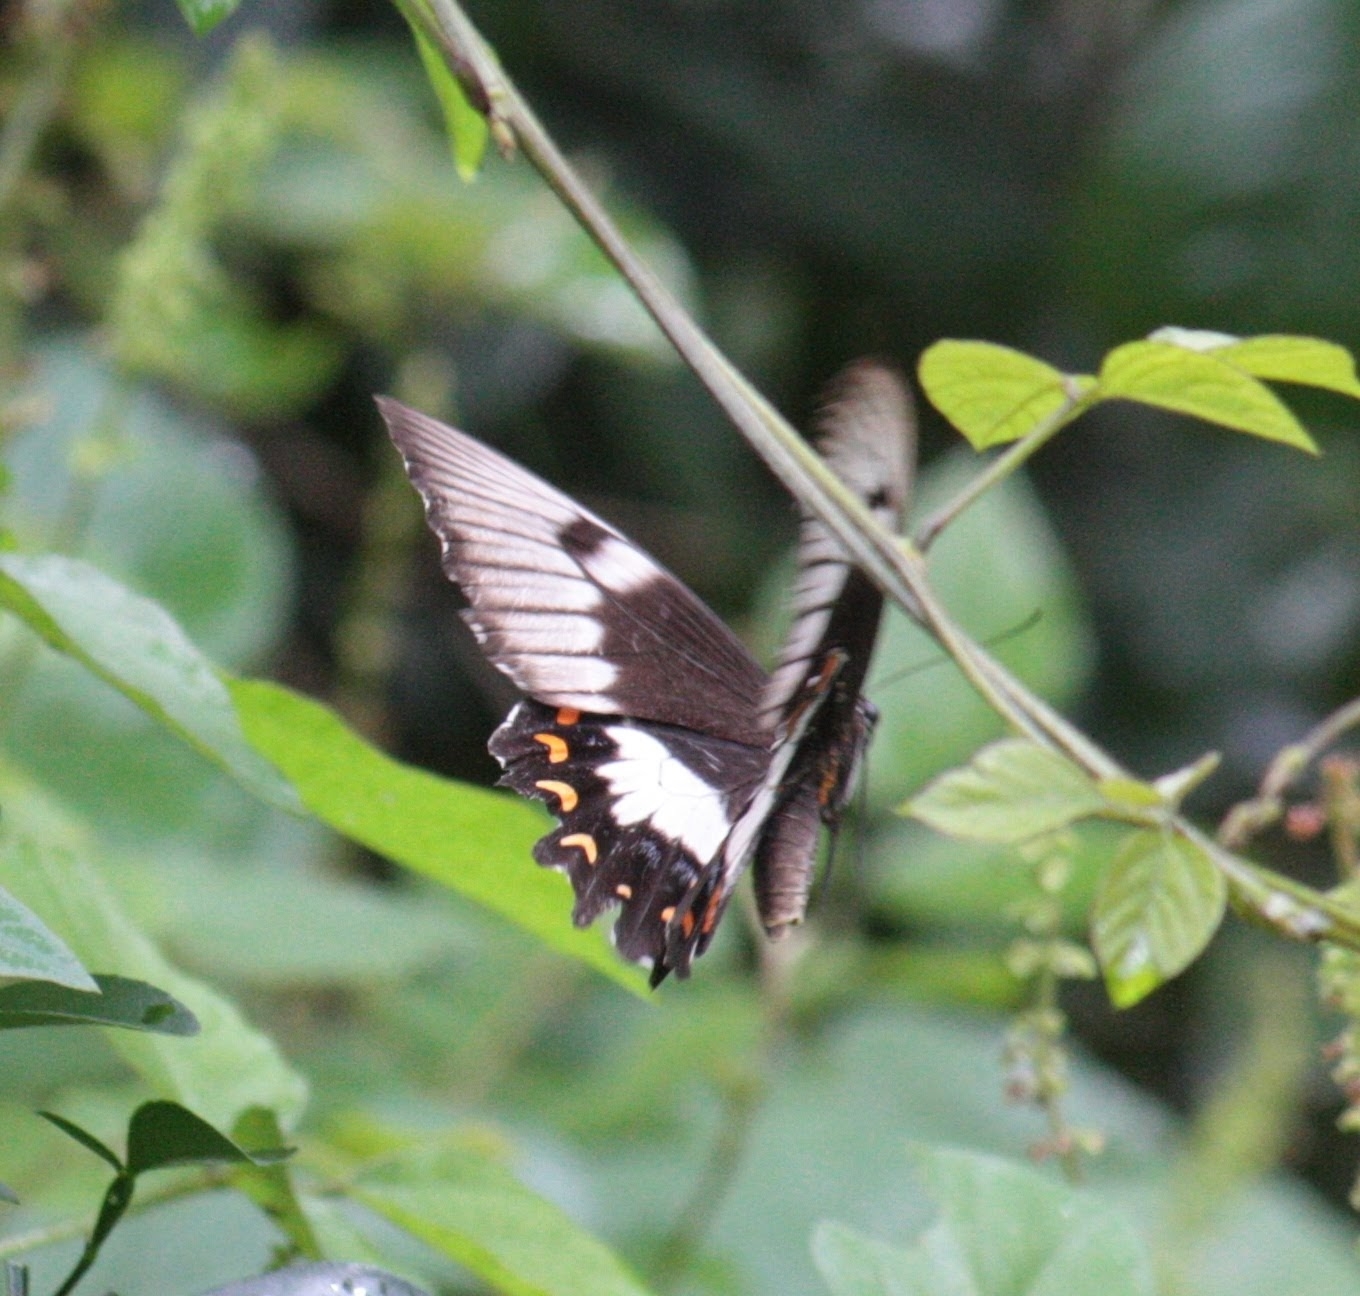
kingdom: Animalia
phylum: Arthropoda
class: Insecta
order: Lepidoptera
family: Papilionidae
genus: Papilio
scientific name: Papilio aegeus
